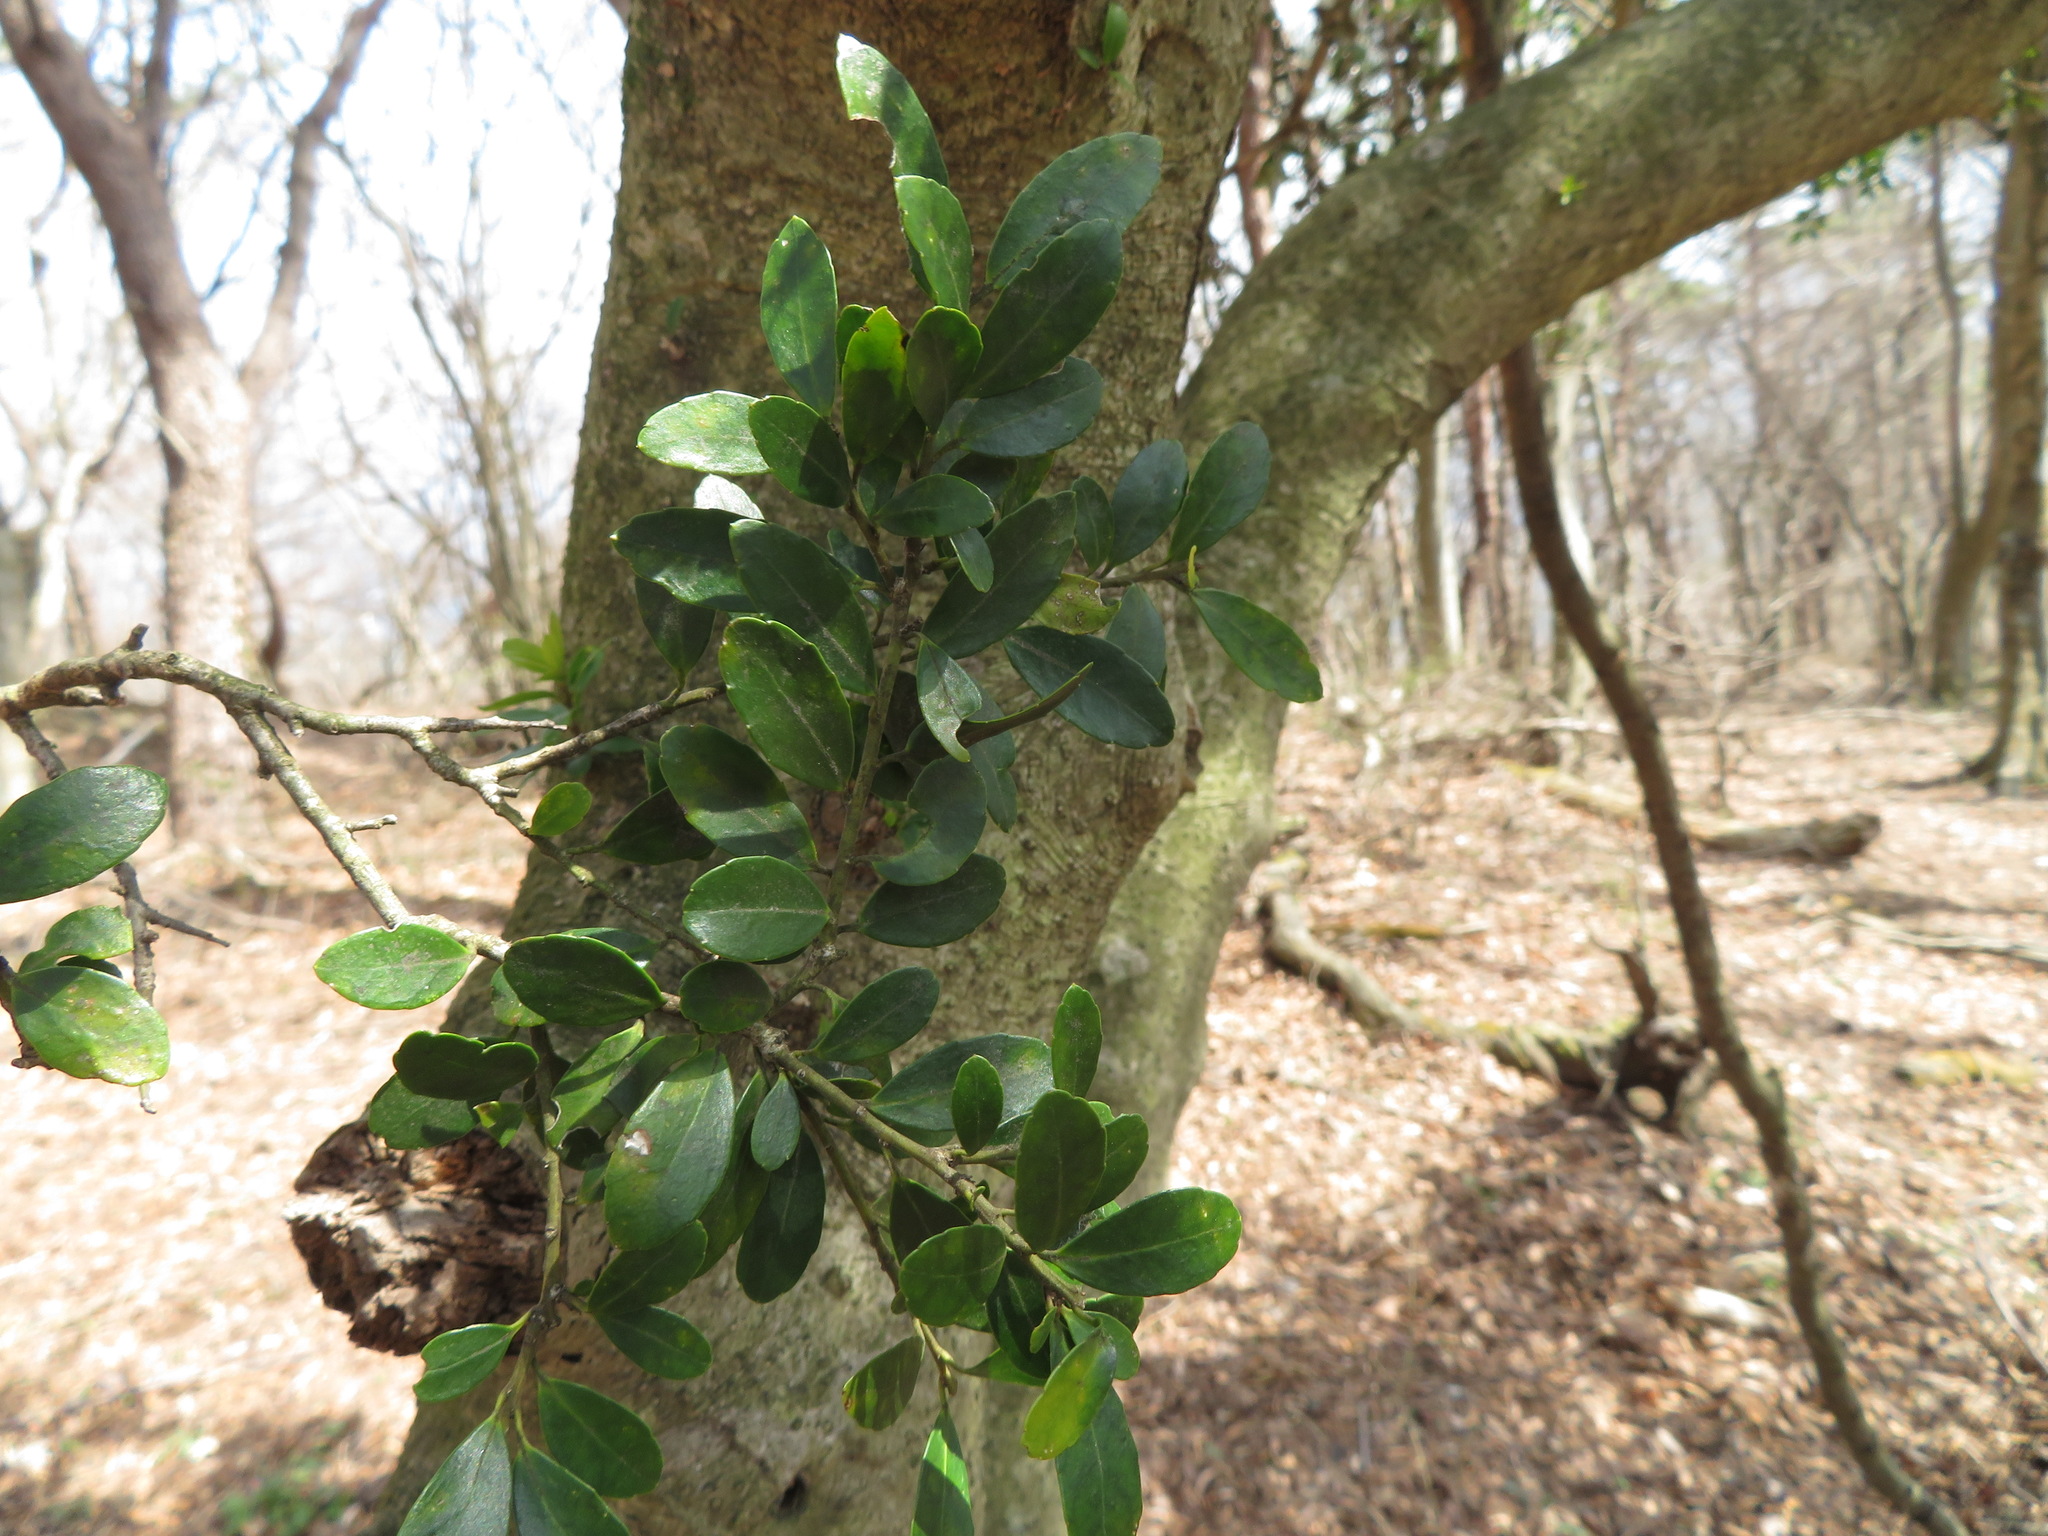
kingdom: Plantae
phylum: Tracheophyta
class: Magnoliopsida
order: Aquifoliales
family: Aquifoliaceae
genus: Ilex
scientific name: Ilex crenata
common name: Japanese holly
